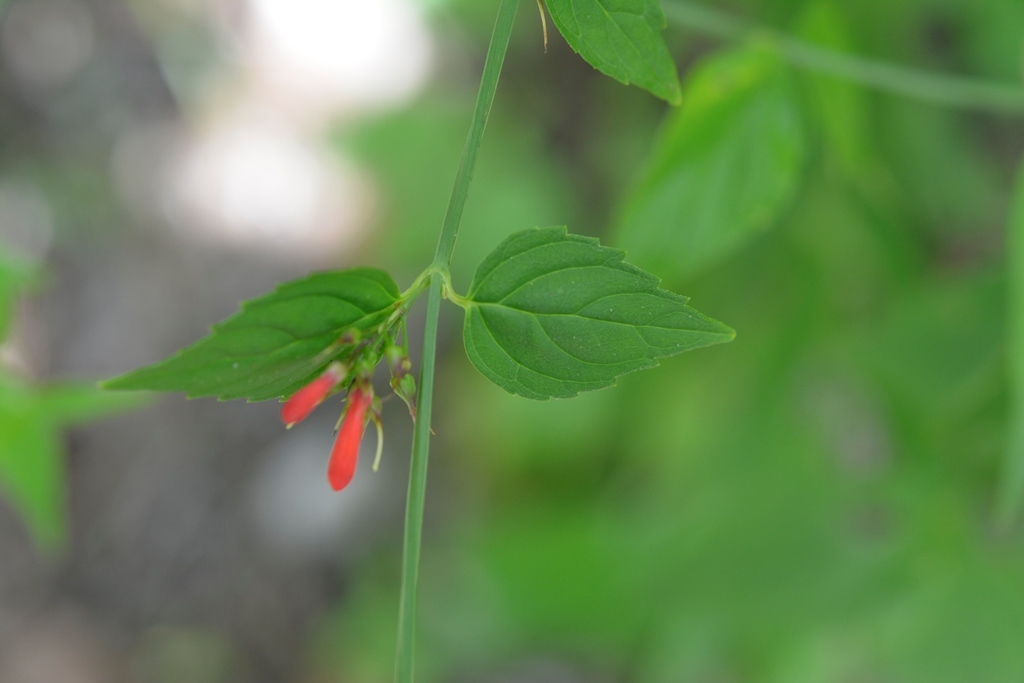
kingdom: Plantae
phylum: Tracheophyta
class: Magnoliopsida
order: Lamiales
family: Plantaginaceae
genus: Russelia
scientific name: Russelia sarmentosa
